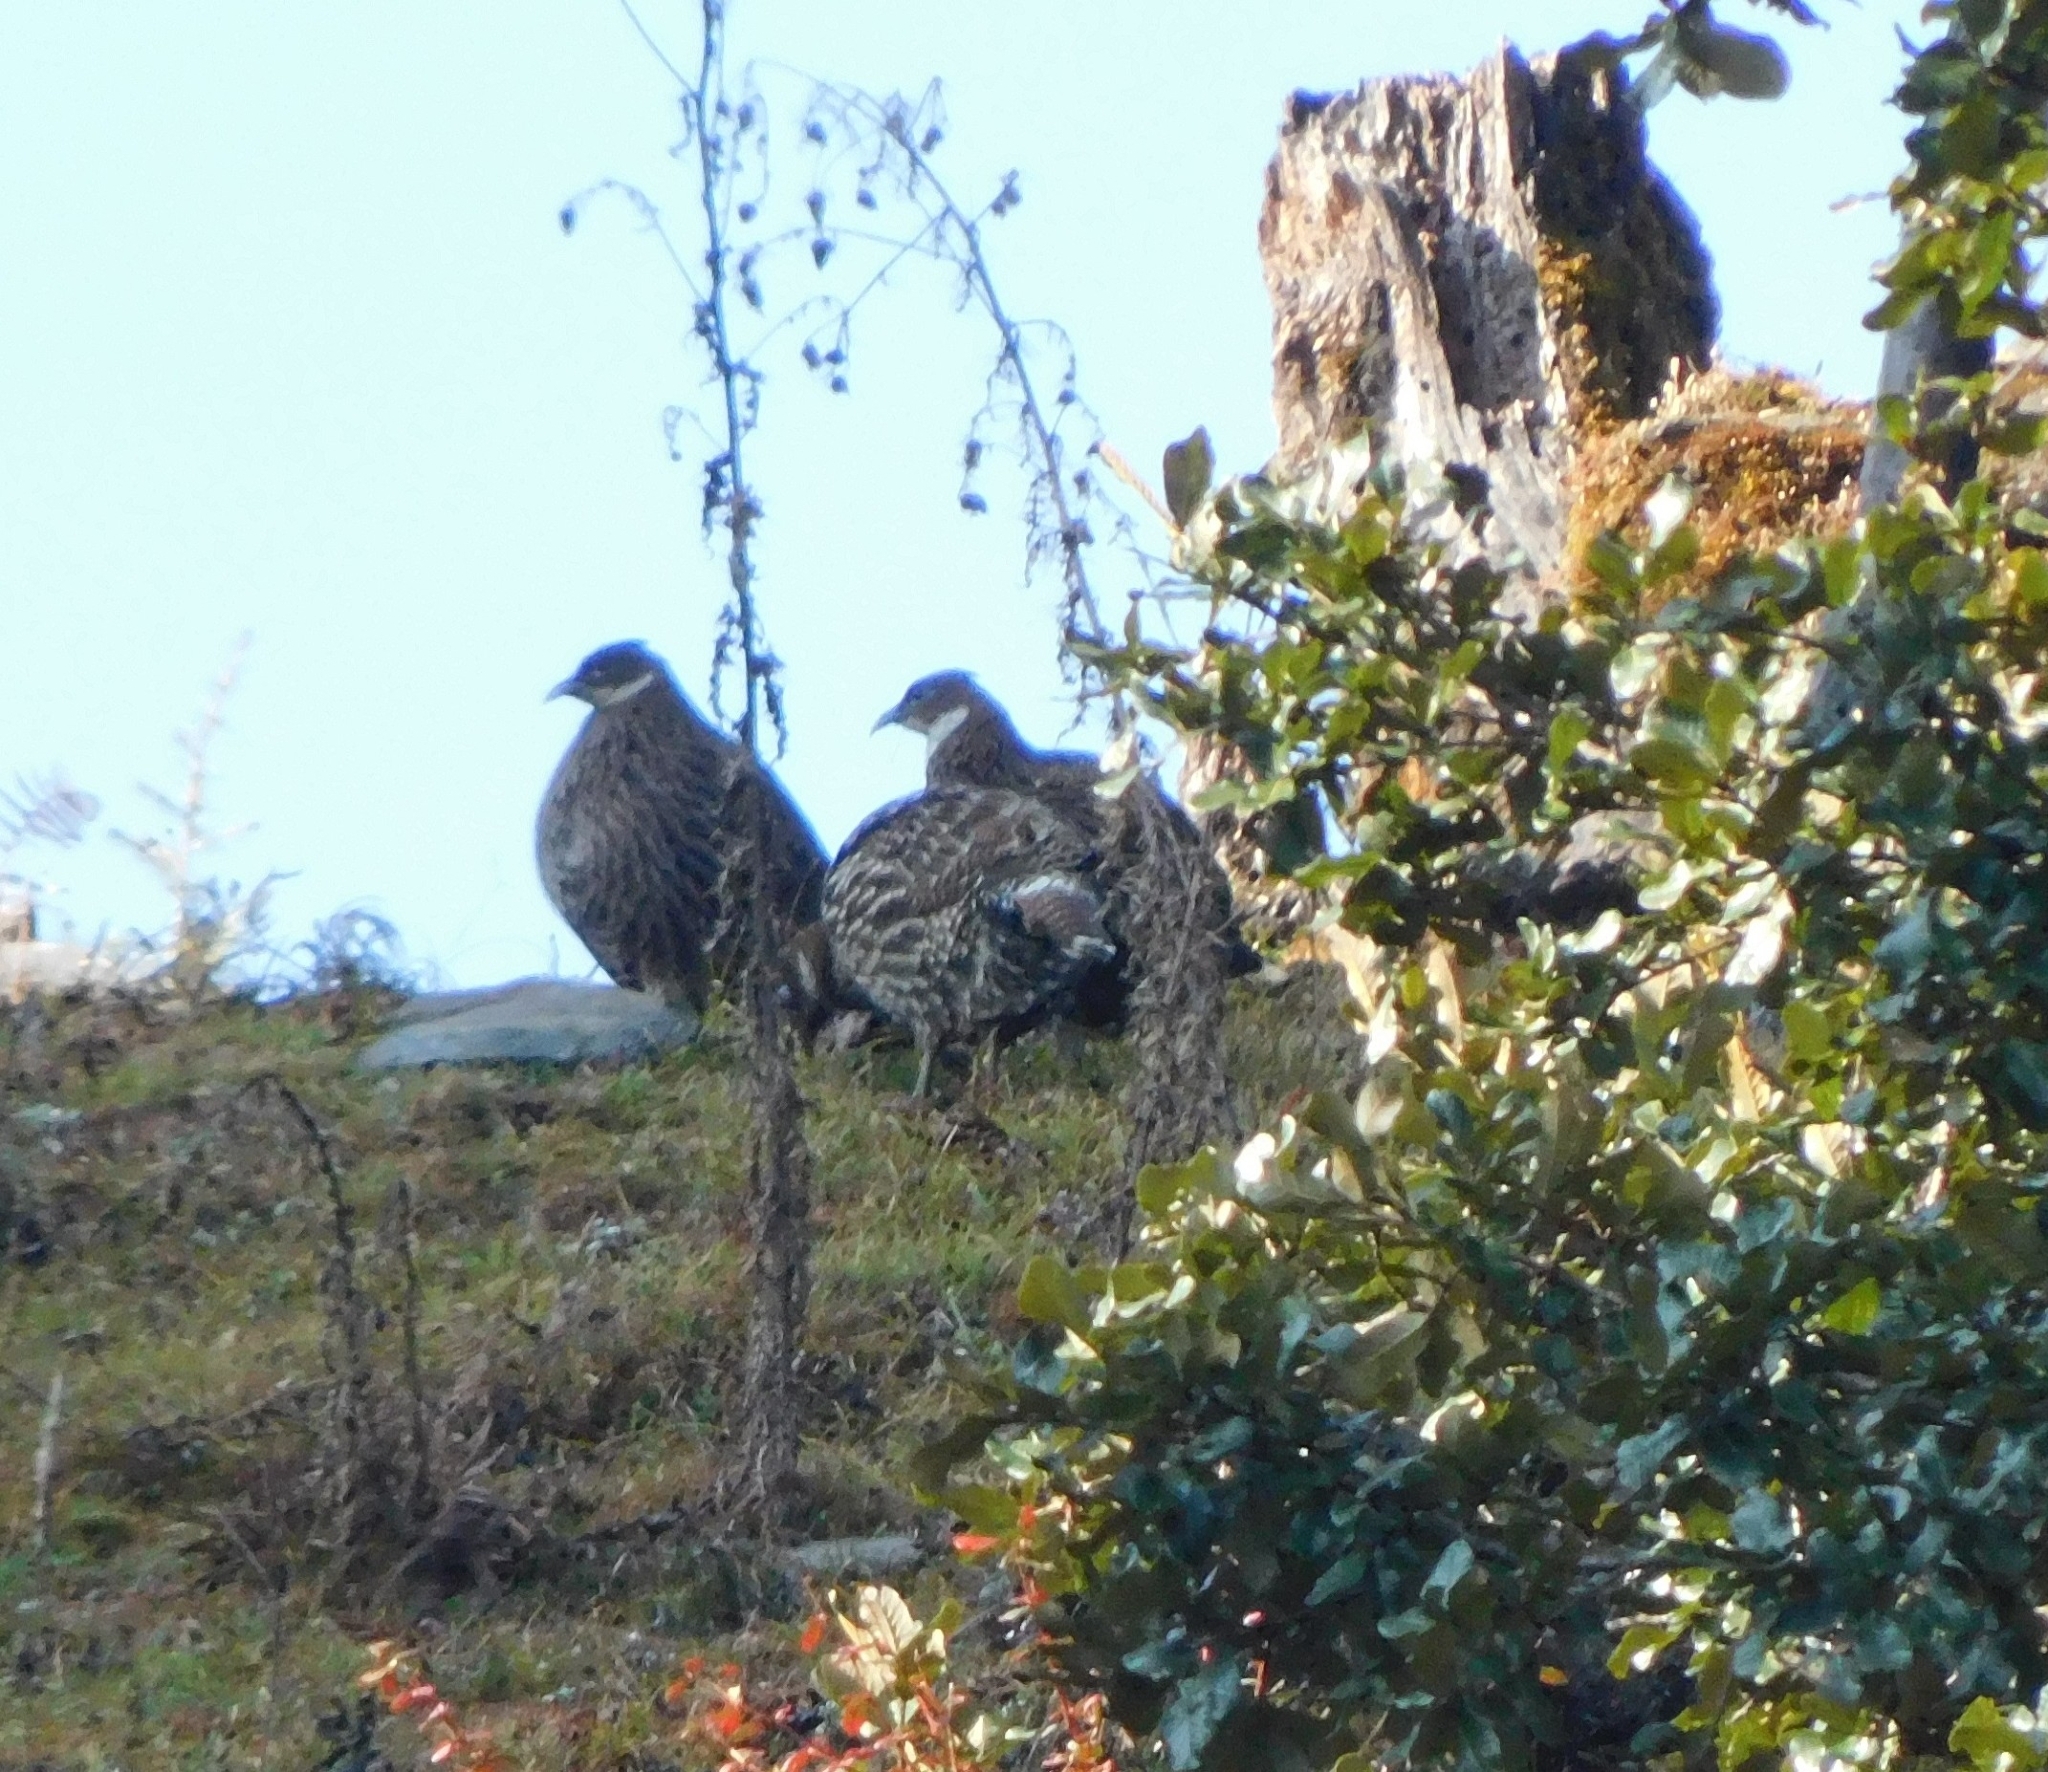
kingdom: Animalia
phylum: Chordata
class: Aves
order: Galliformes
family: Phasianidae
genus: Lophophorus
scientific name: Lophophorus impejanus
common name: Himalayan monal
